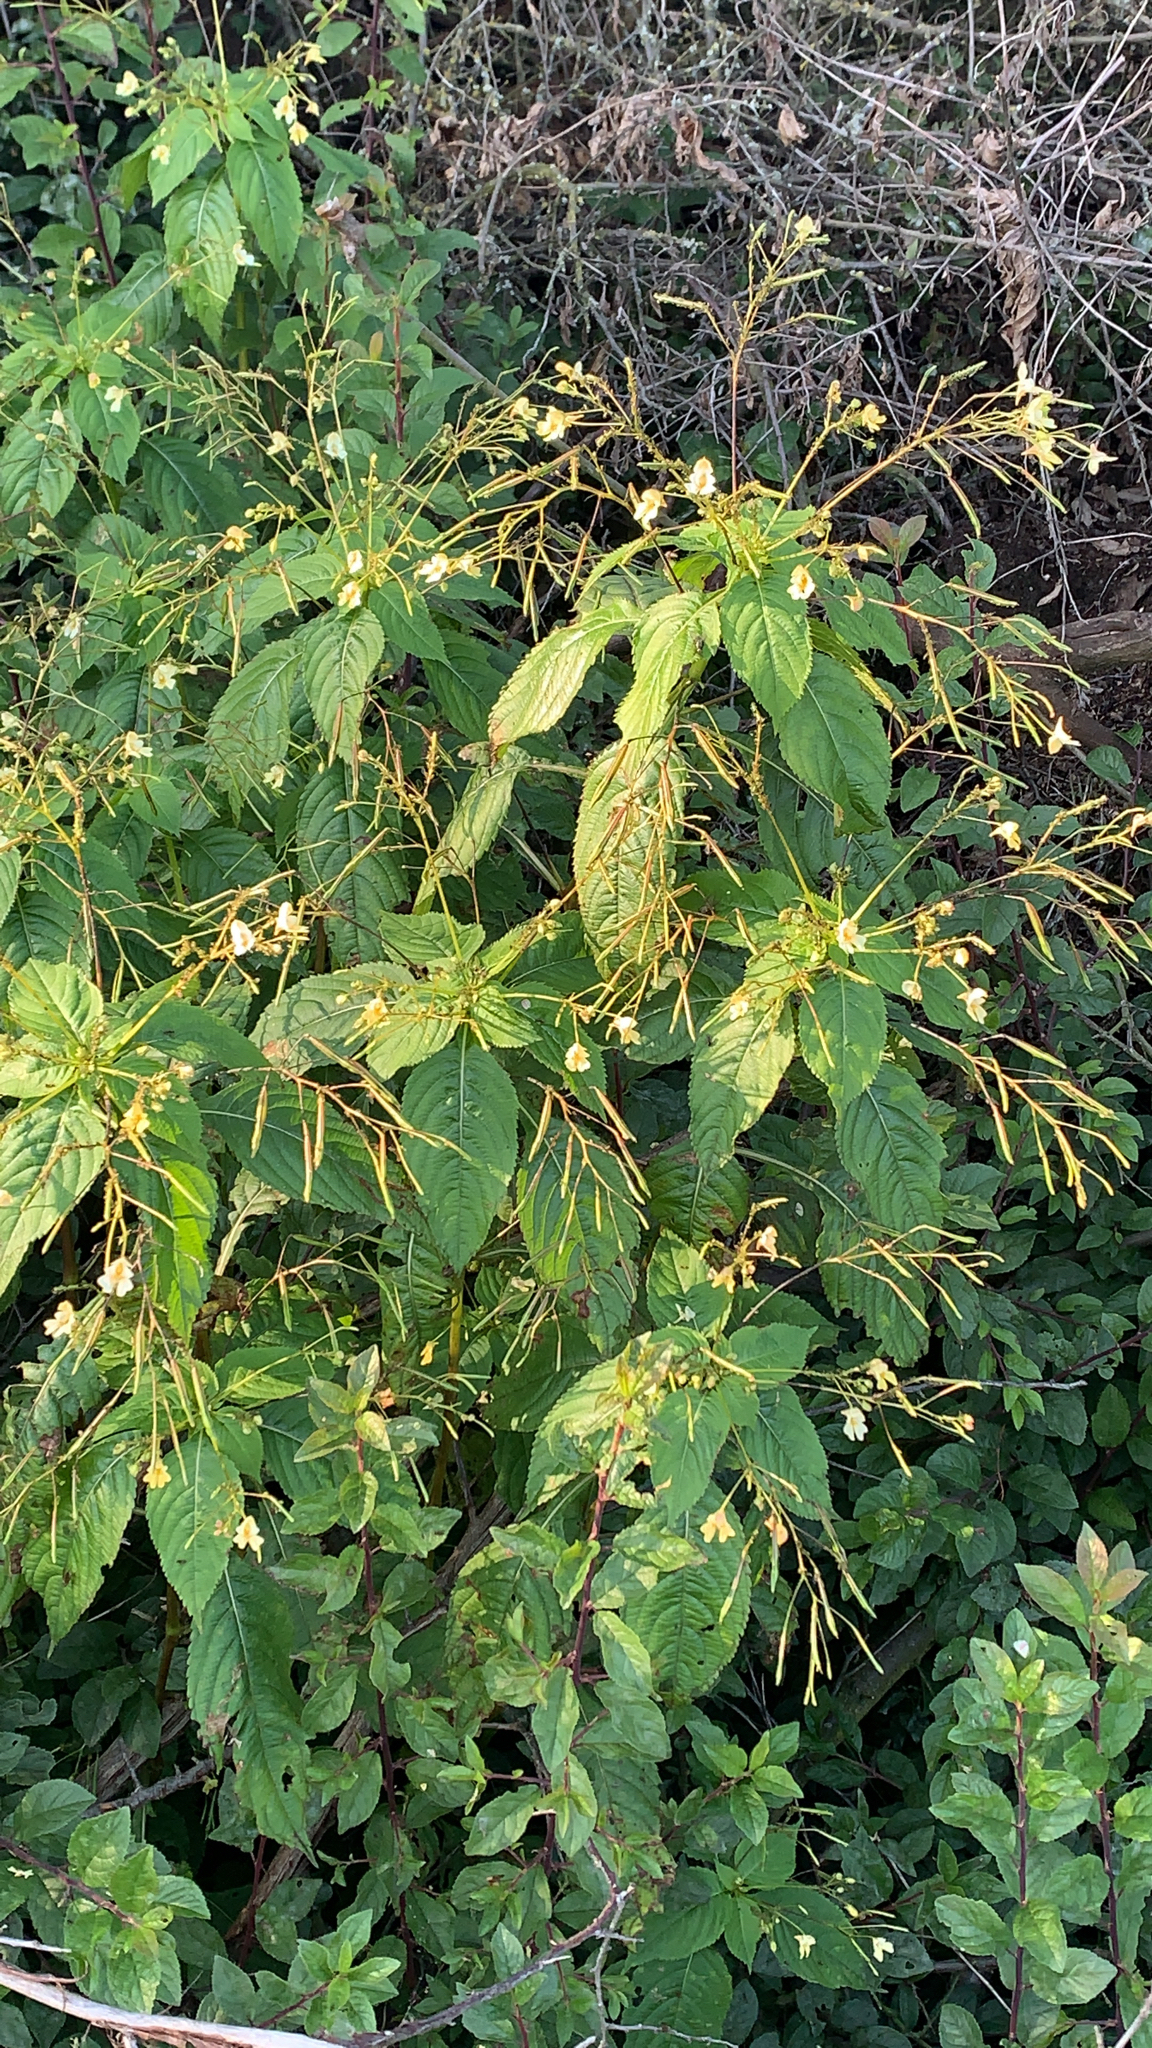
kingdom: Plantae
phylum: Tracheophyta
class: Magnoliopsida
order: Ericales
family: Balsaminaceae
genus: Impatiens
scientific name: Impatiens parviflora
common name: Small balsam
